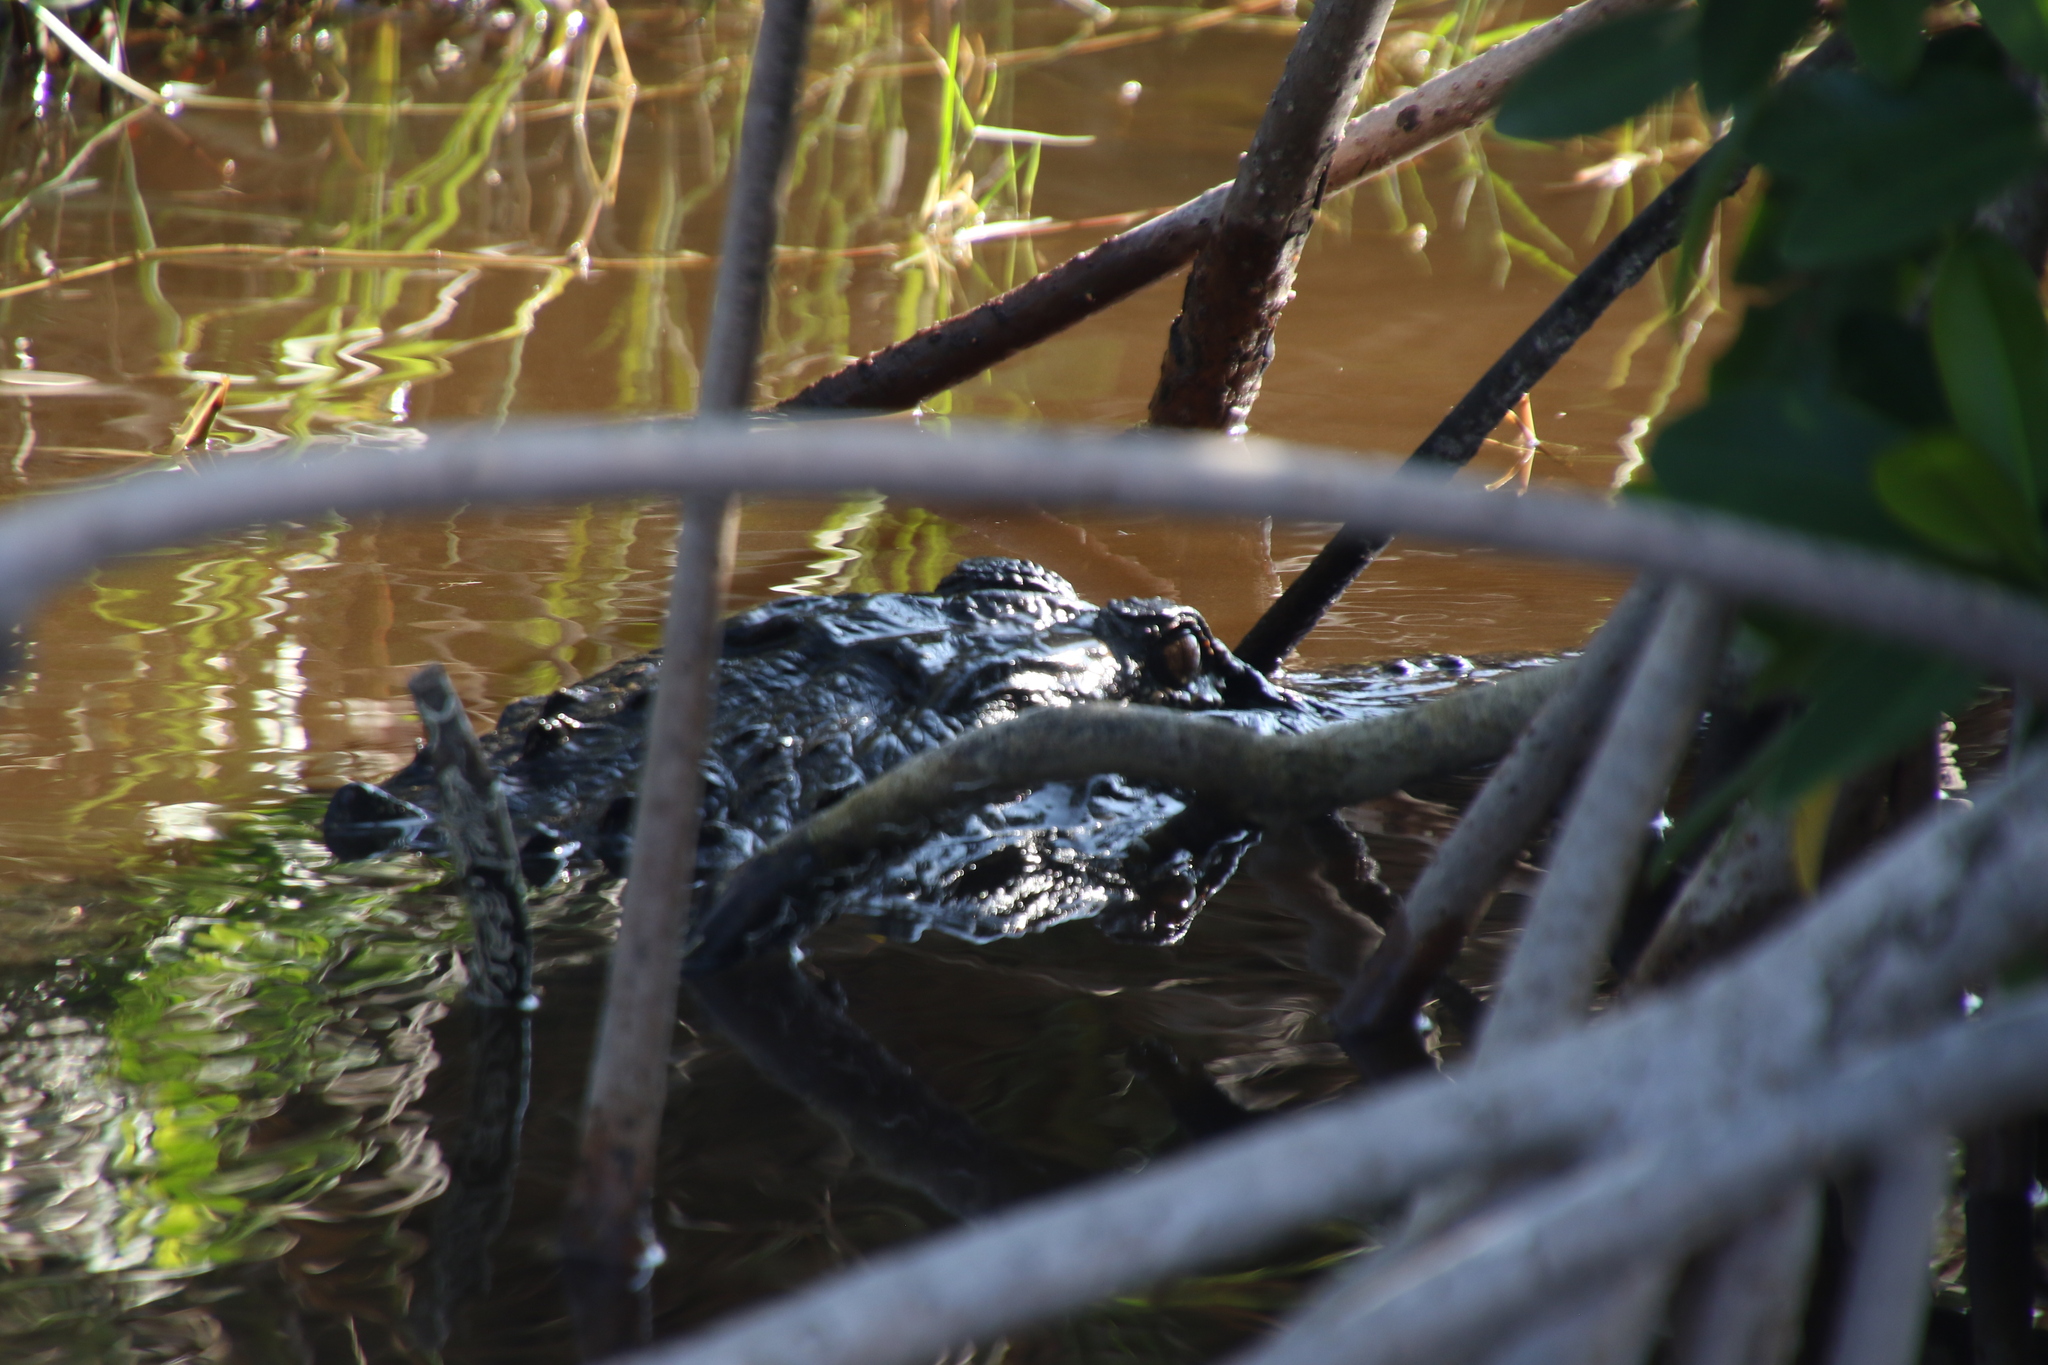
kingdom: Animalia
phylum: Chordata
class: Crocodylia
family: Alligatoridae
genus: Alligator
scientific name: Alligator mississippiensis
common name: American alligator
